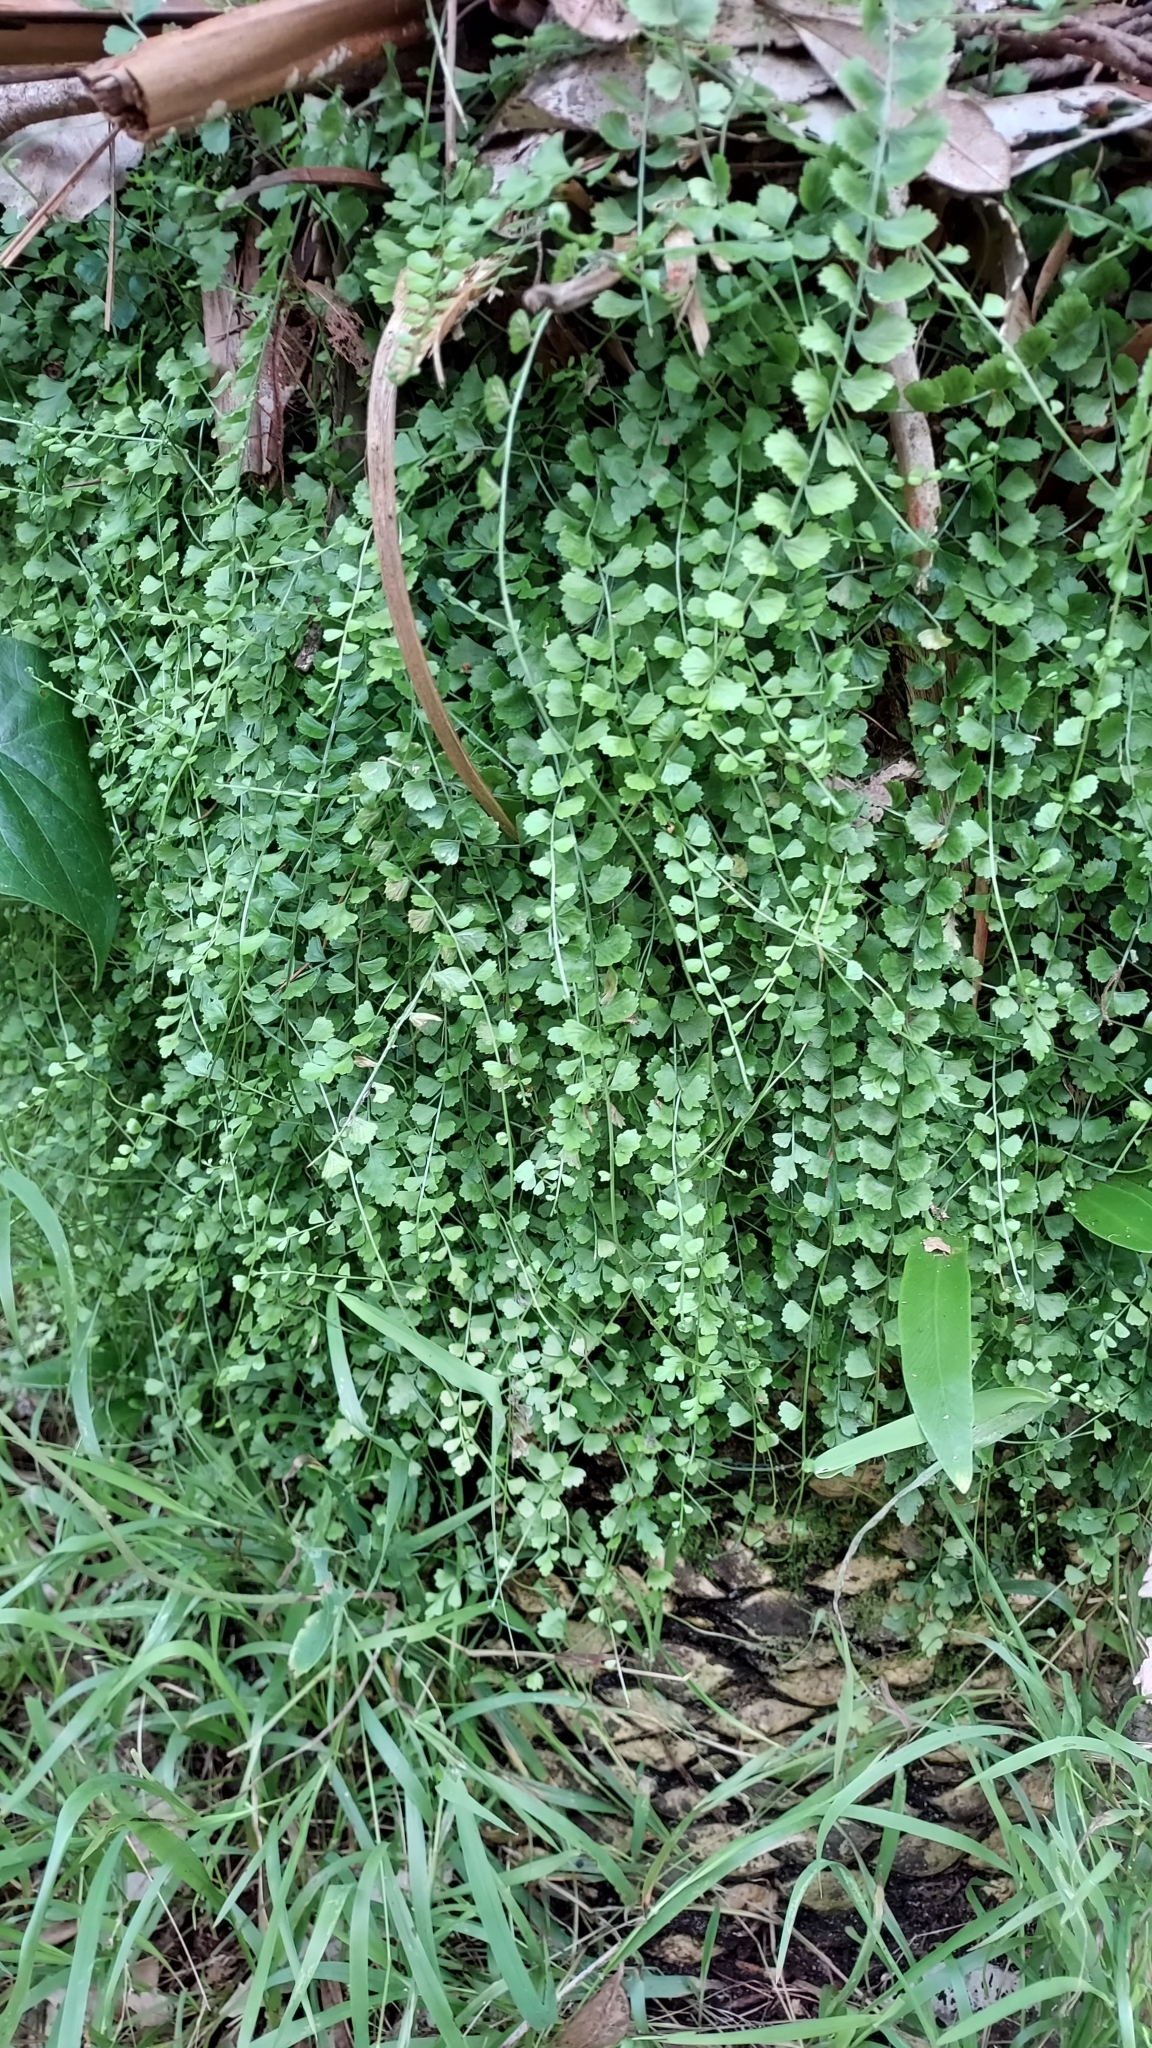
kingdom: Plantae
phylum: Tracheophyta
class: Polypodiopsida
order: Polypodiales
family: Aspleniaceae
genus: Asplenium
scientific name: Asplenium flabellifolium
